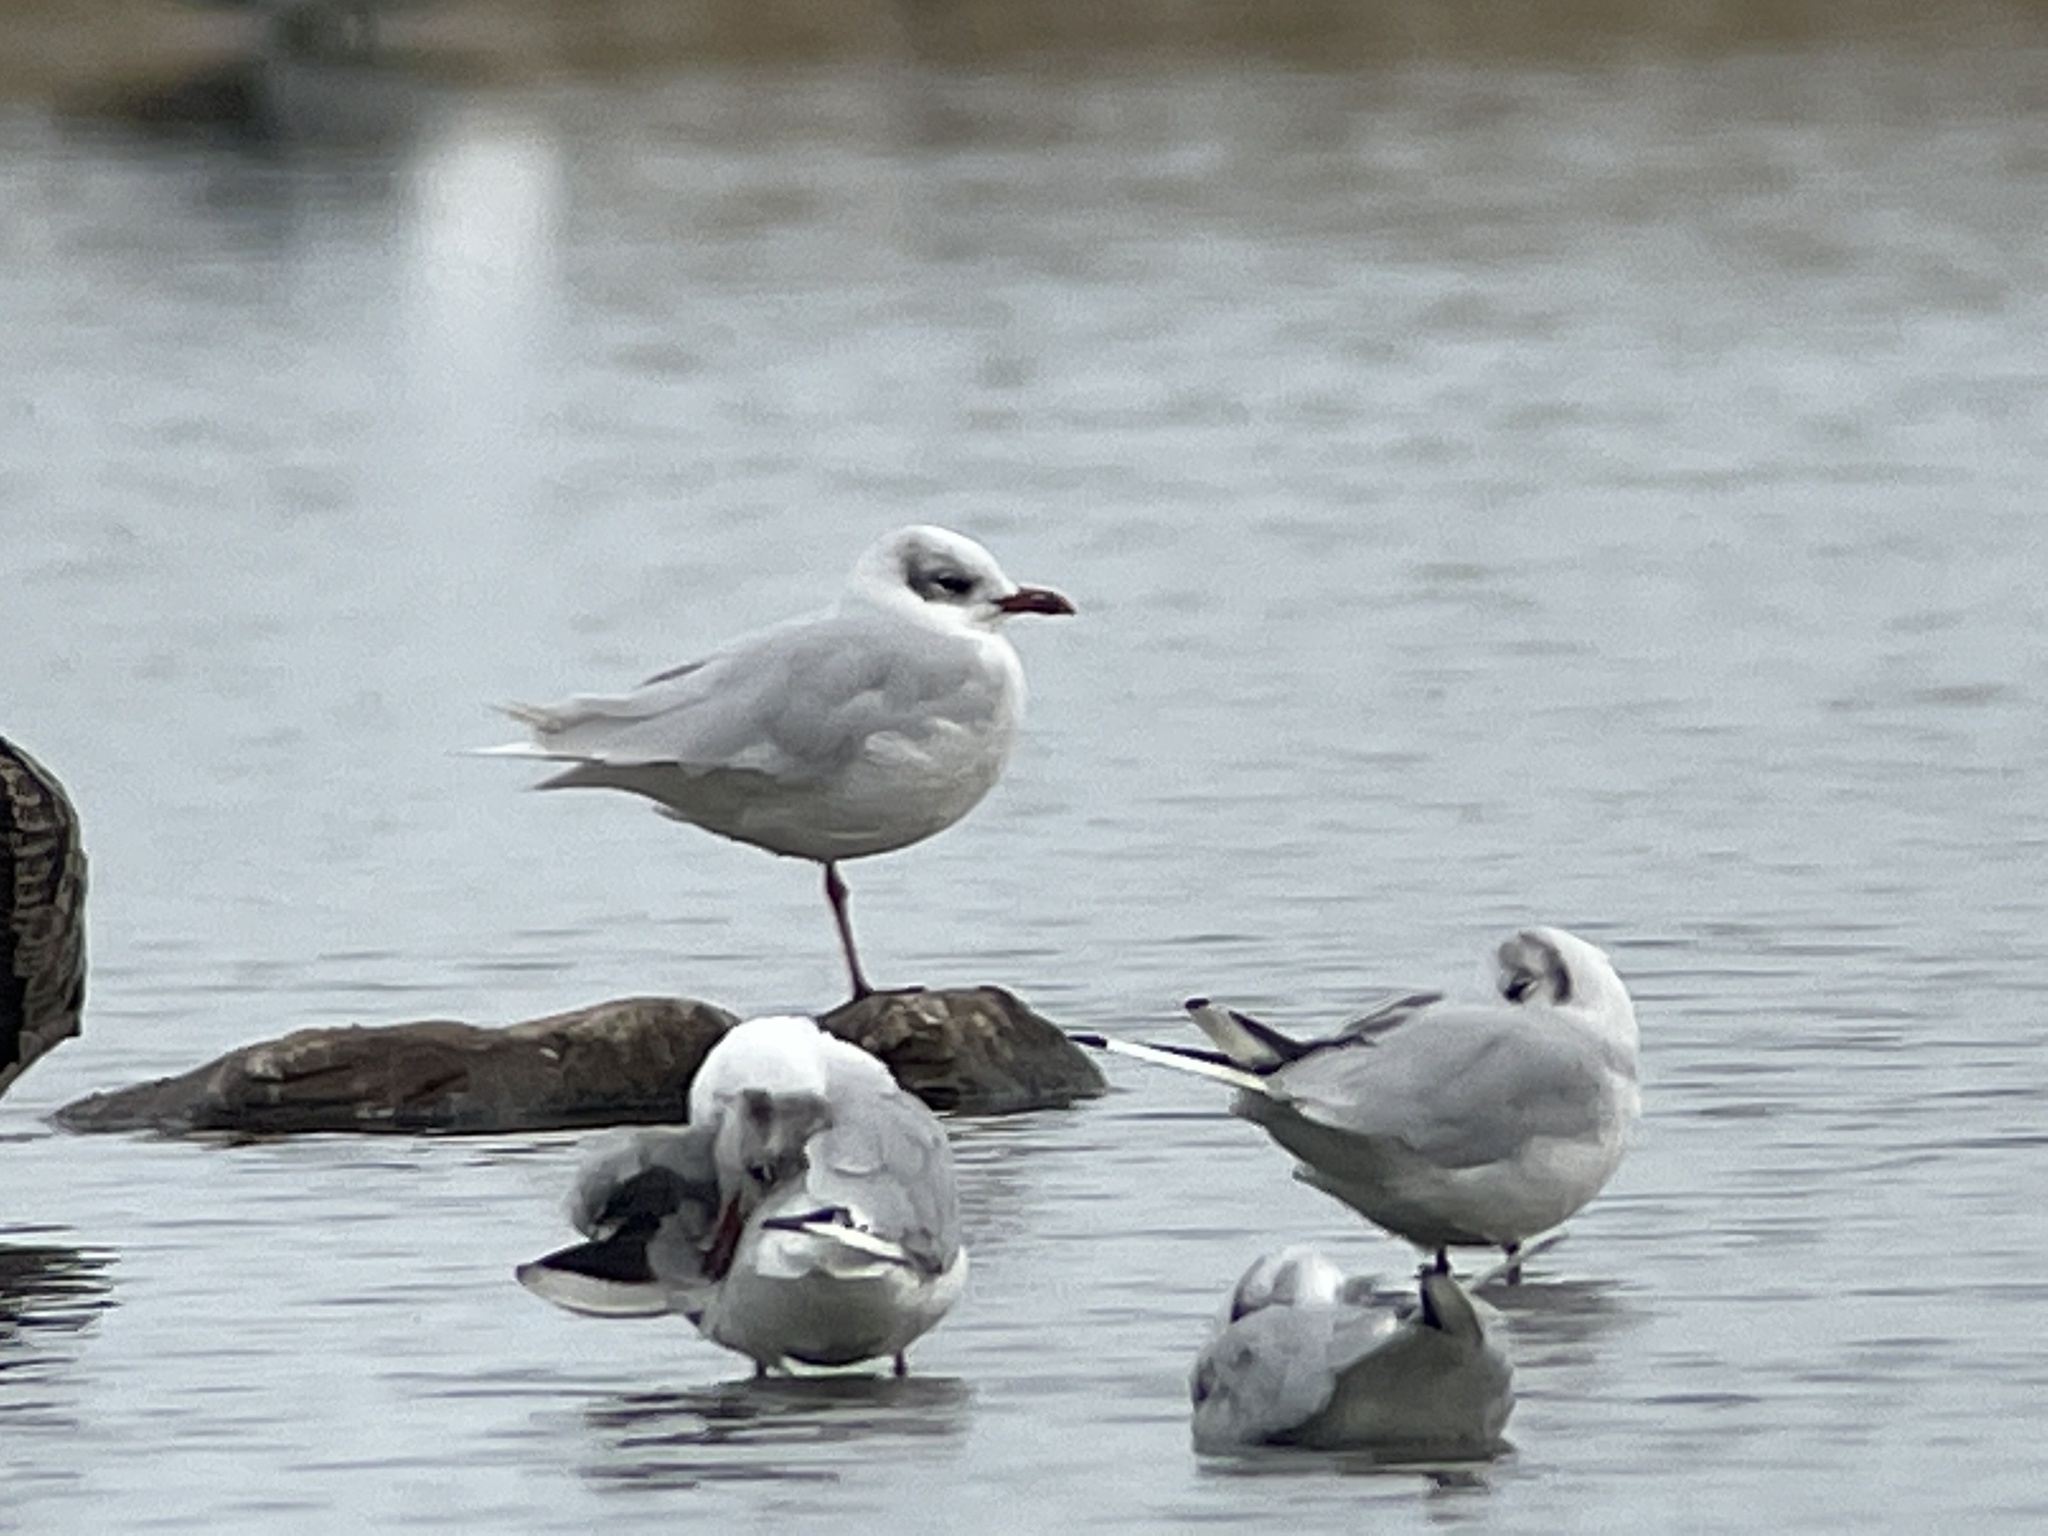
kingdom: Animalia
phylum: Chordata
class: Aves
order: Charadriiformes
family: Laridae
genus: Ichthyaetus
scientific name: Ichthyaetus melanocephalus
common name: Mediterranean gull
